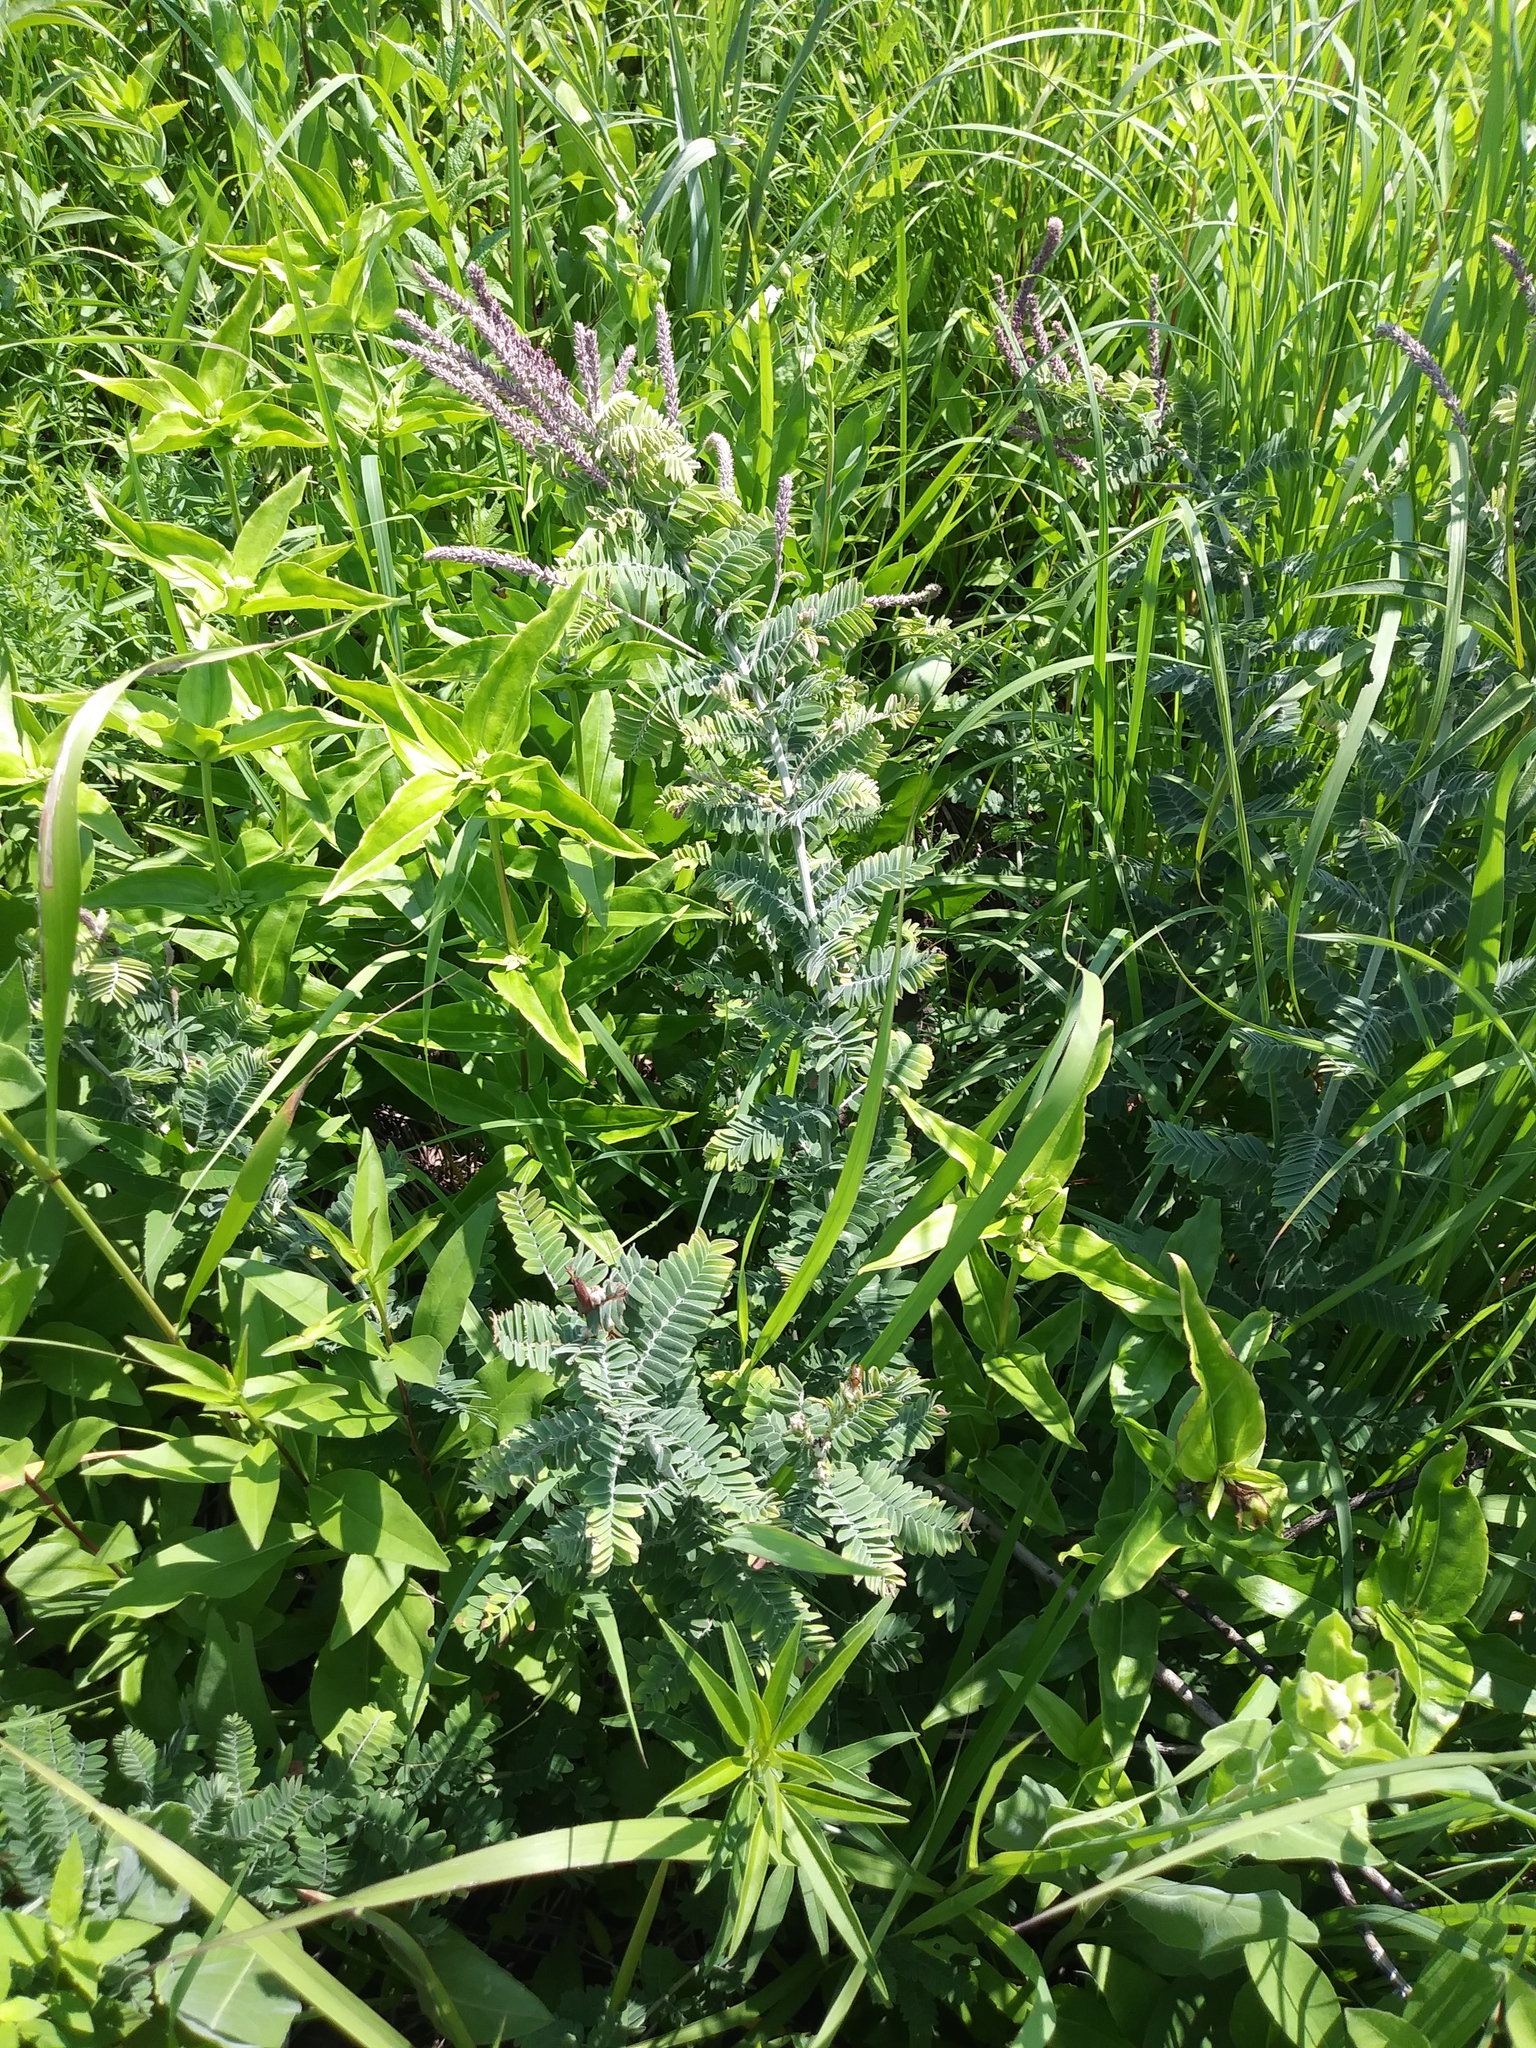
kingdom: Plantae
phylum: Tracheophyta
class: Magnoliopsida
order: Fabales
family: Fabaceae
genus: Amorpha
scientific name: Amorpha canescens
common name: Leadplant
